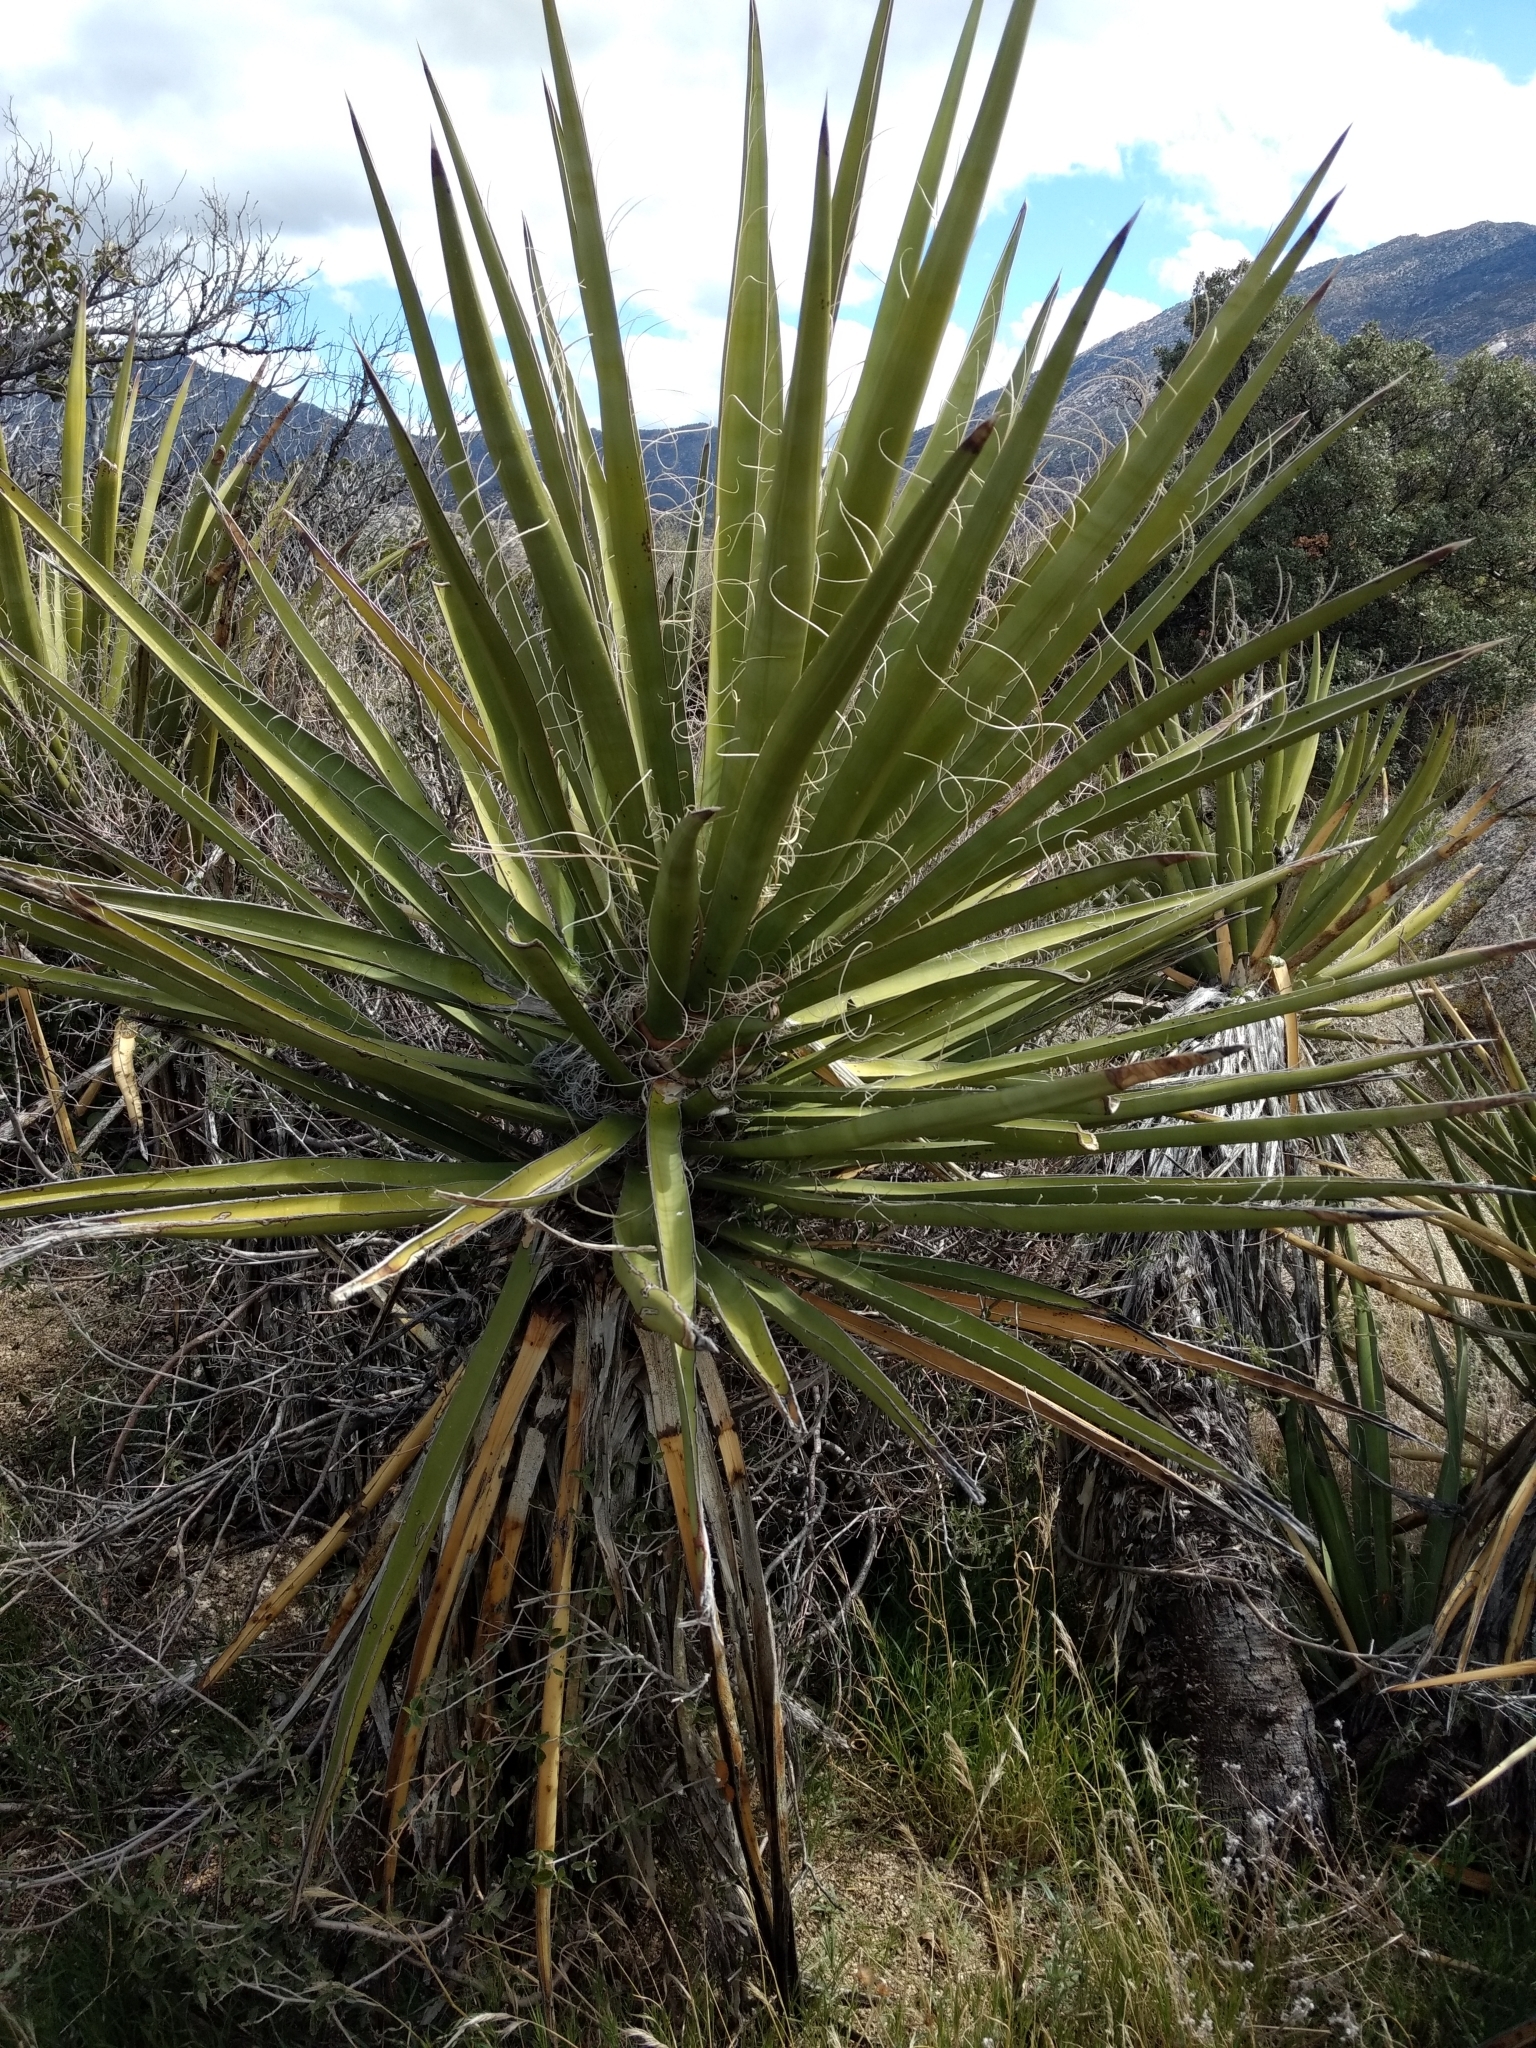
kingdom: Plantae
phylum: Tracheophyta
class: Liliopsida
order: Asparagales
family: Asparagaceae
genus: Yucca
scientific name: Yucca schidigera
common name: Mojave yucca
